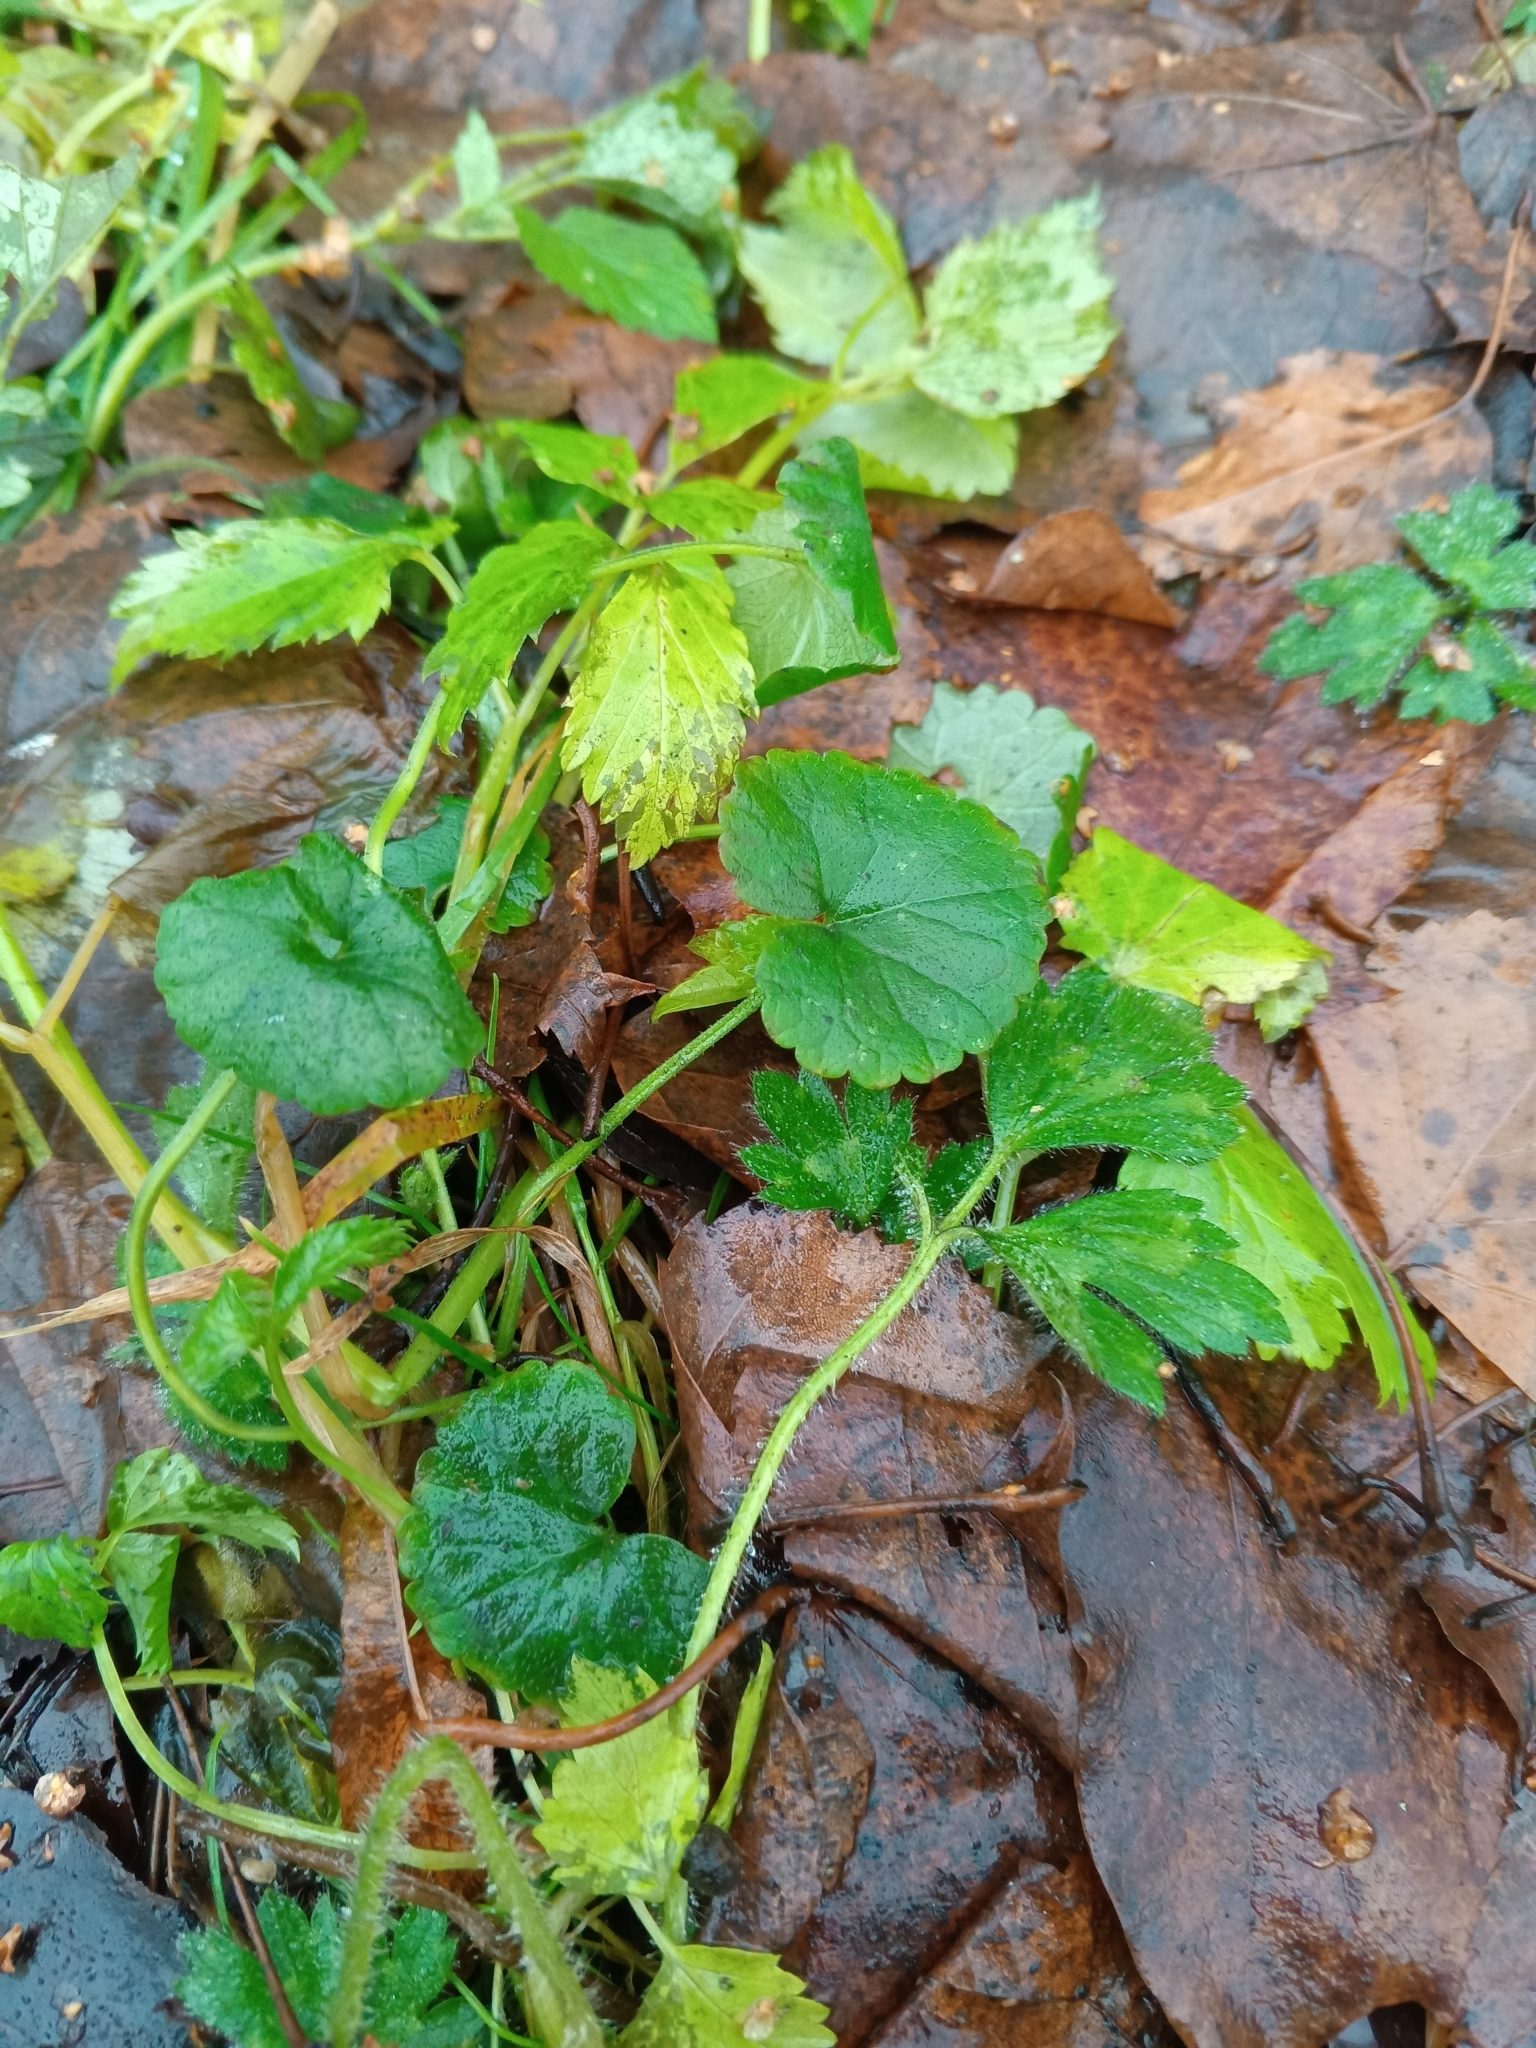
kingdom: Plantae
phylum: Tracheophyta
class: Magnoliopsida
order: Lamiales
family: Lamiaceae
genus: Glechoma
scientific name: Glechoma hederacea
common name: Ground ivy
